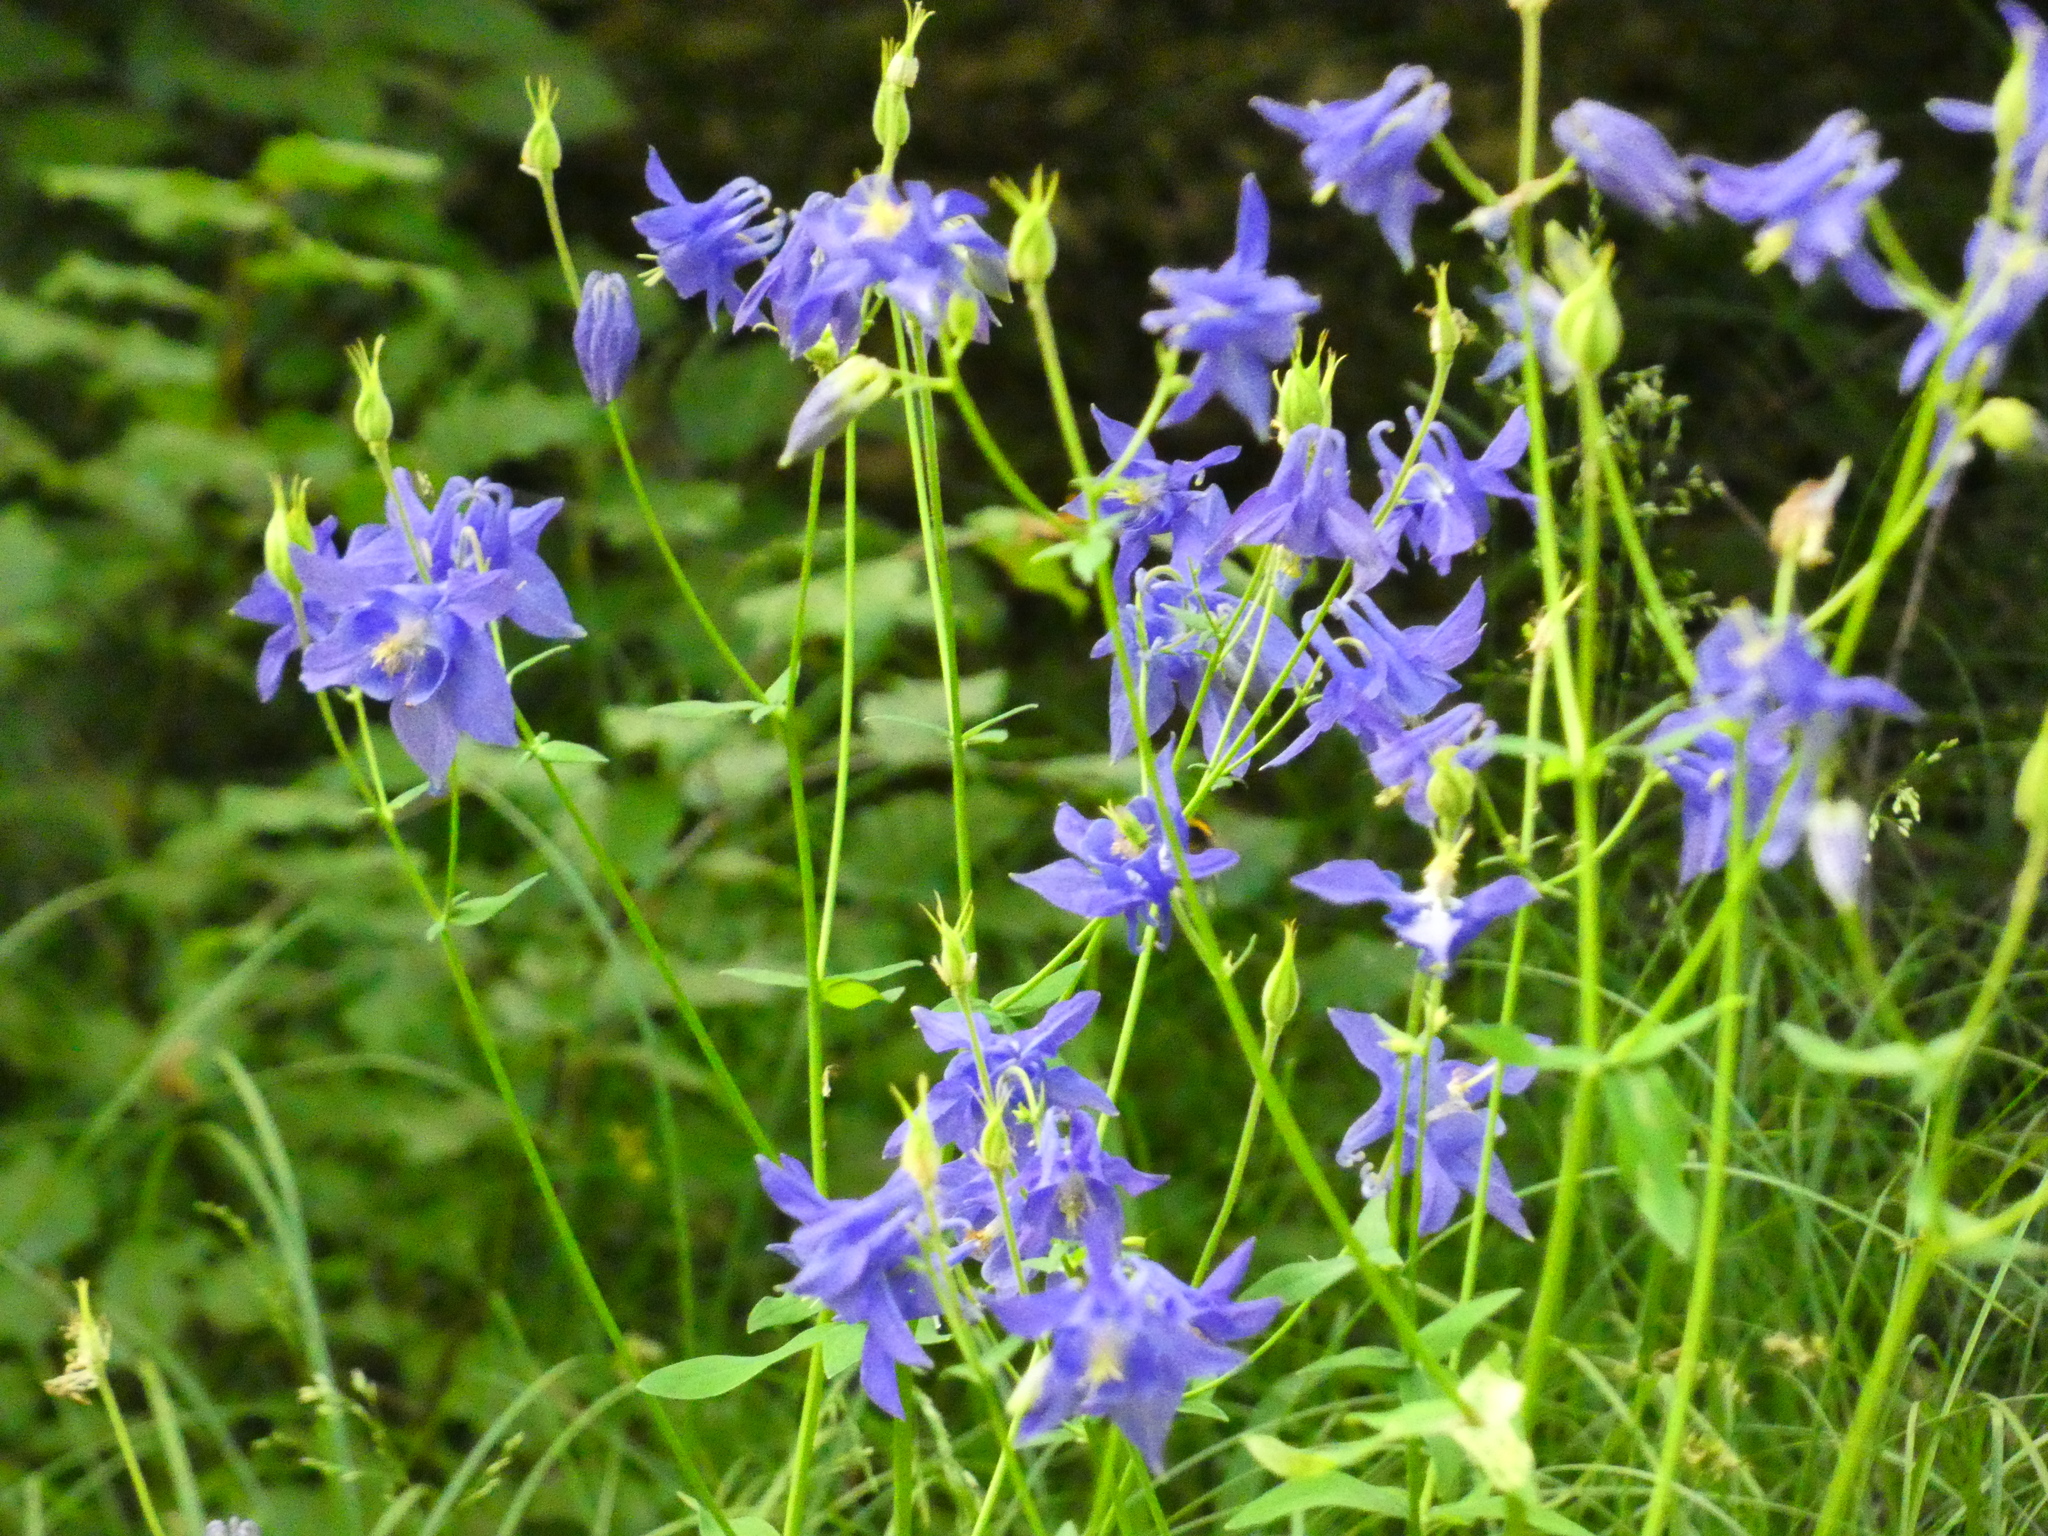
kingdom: Plantae
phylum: Tracheophyta
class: Magnoliopsida
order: Ranunculales
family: Ranunculaceae
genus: Aquilegia
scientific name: Aquilegia vulgaris
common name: Columbine
